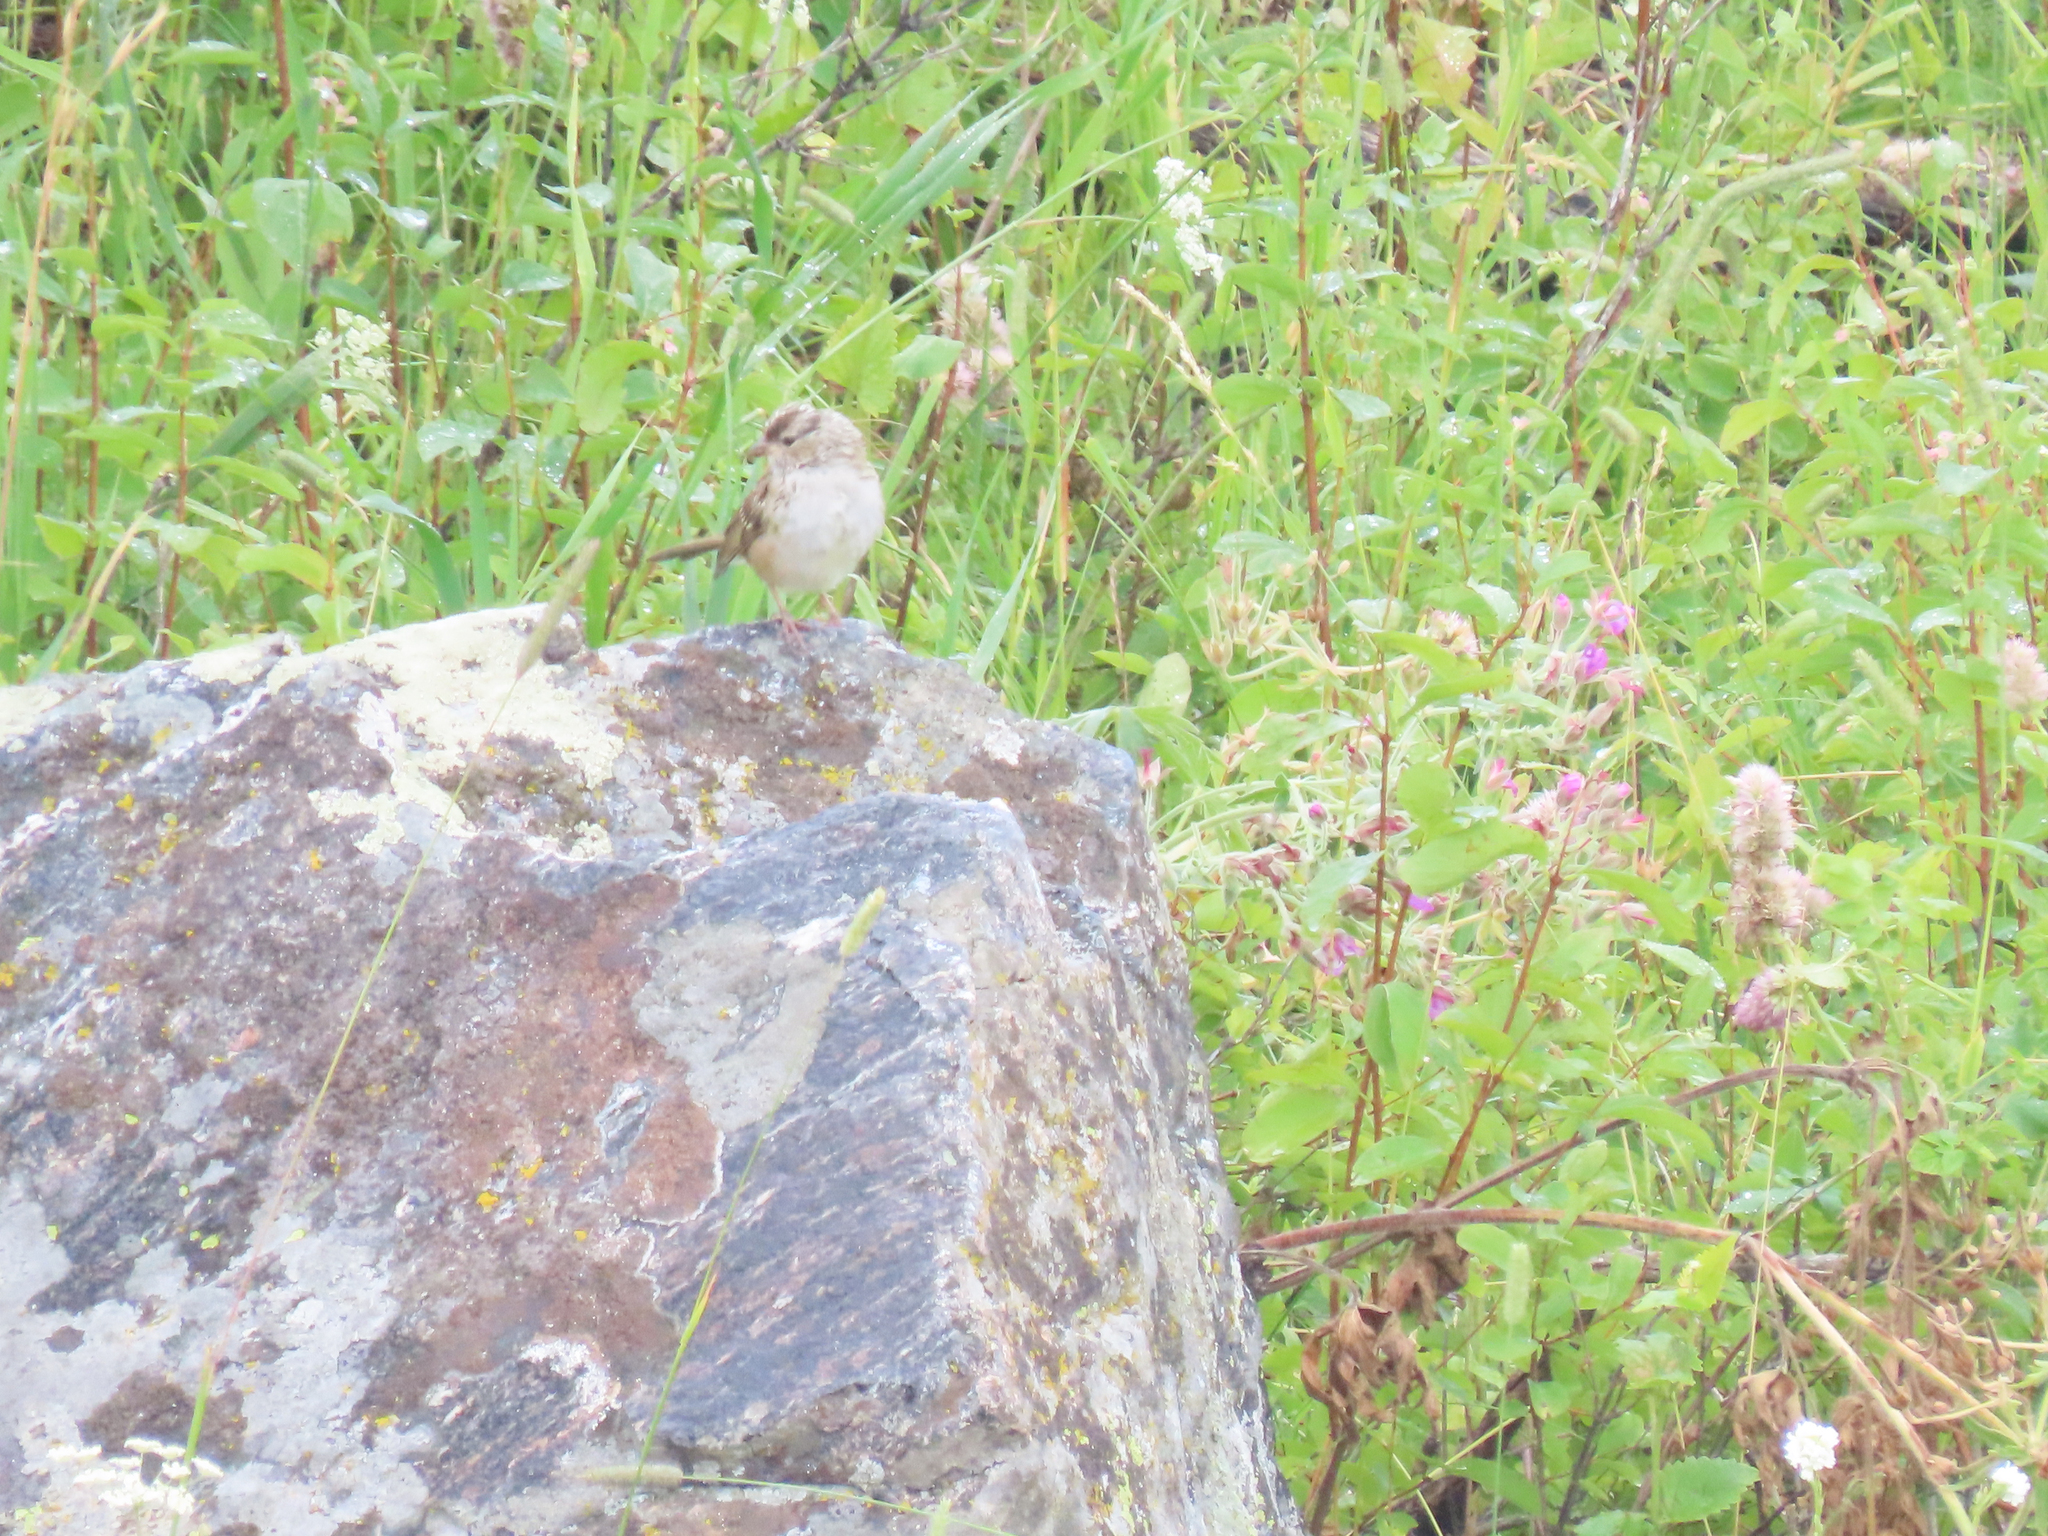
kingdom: Animalia
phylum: Chordata
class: Aves
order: Passeriformes
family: Passerellidae
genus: Zonotrichia
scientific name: Zonotrichia leucophrys
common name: White-crowned sparrow
